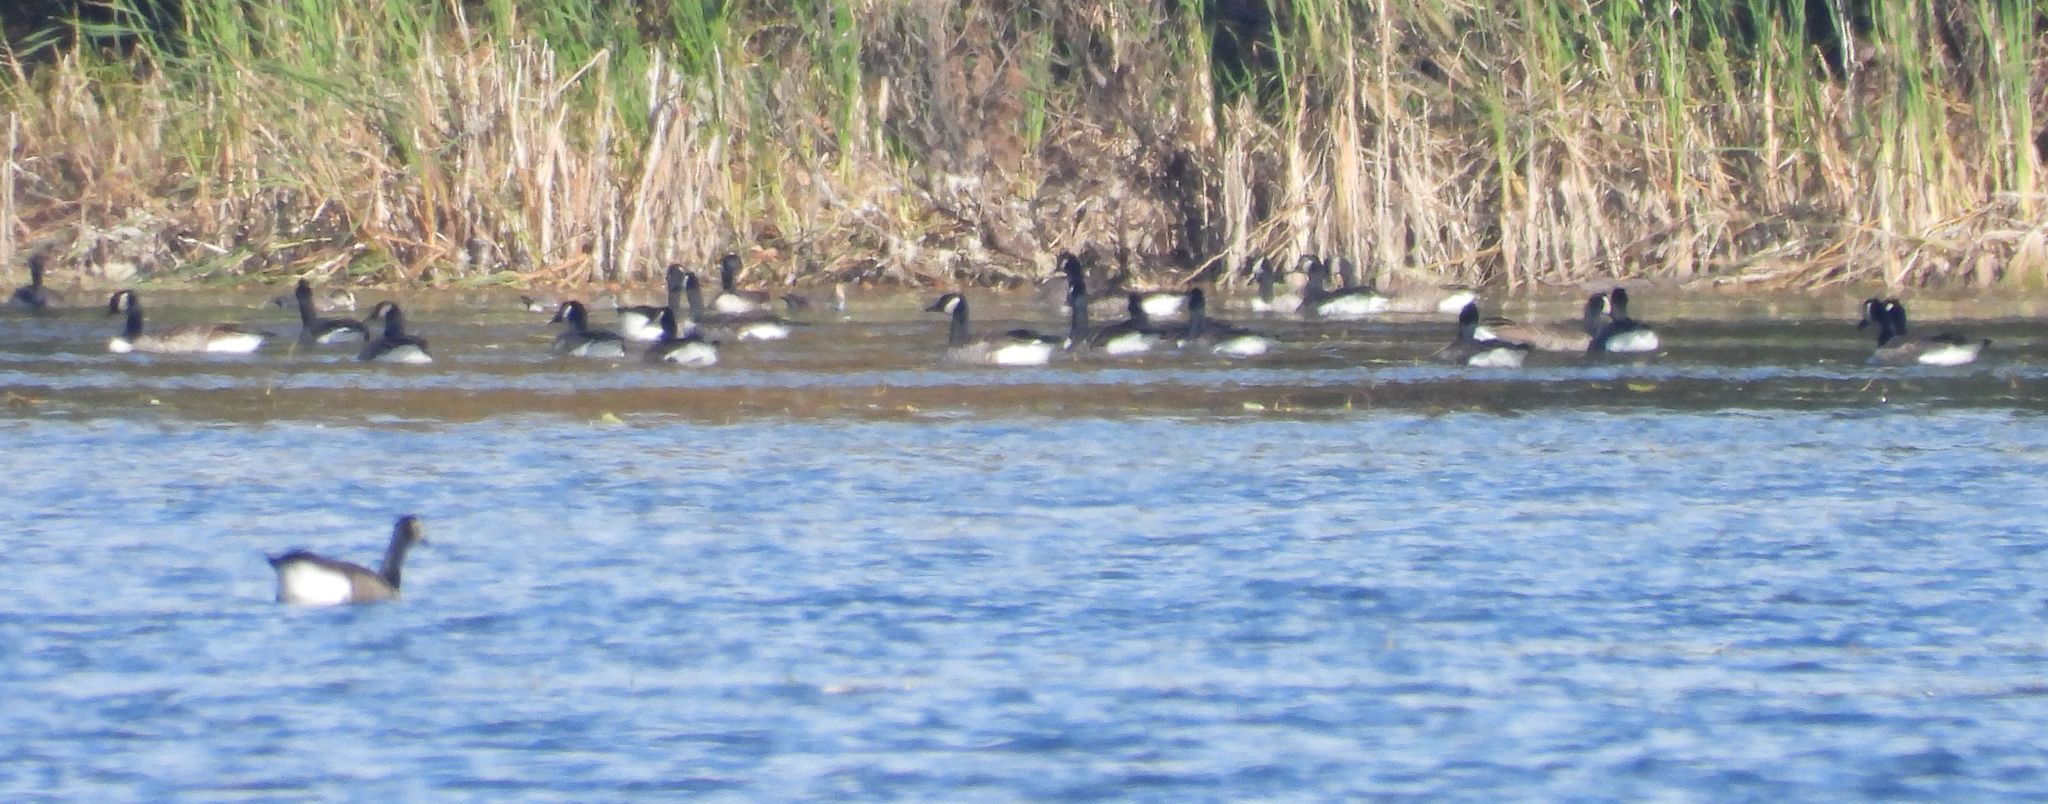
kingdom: Animalia
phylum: Chordata
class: Aves
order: Anseriformes
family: Anatidae
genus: Branta
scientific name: Branta canadensis
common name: Canada goose
